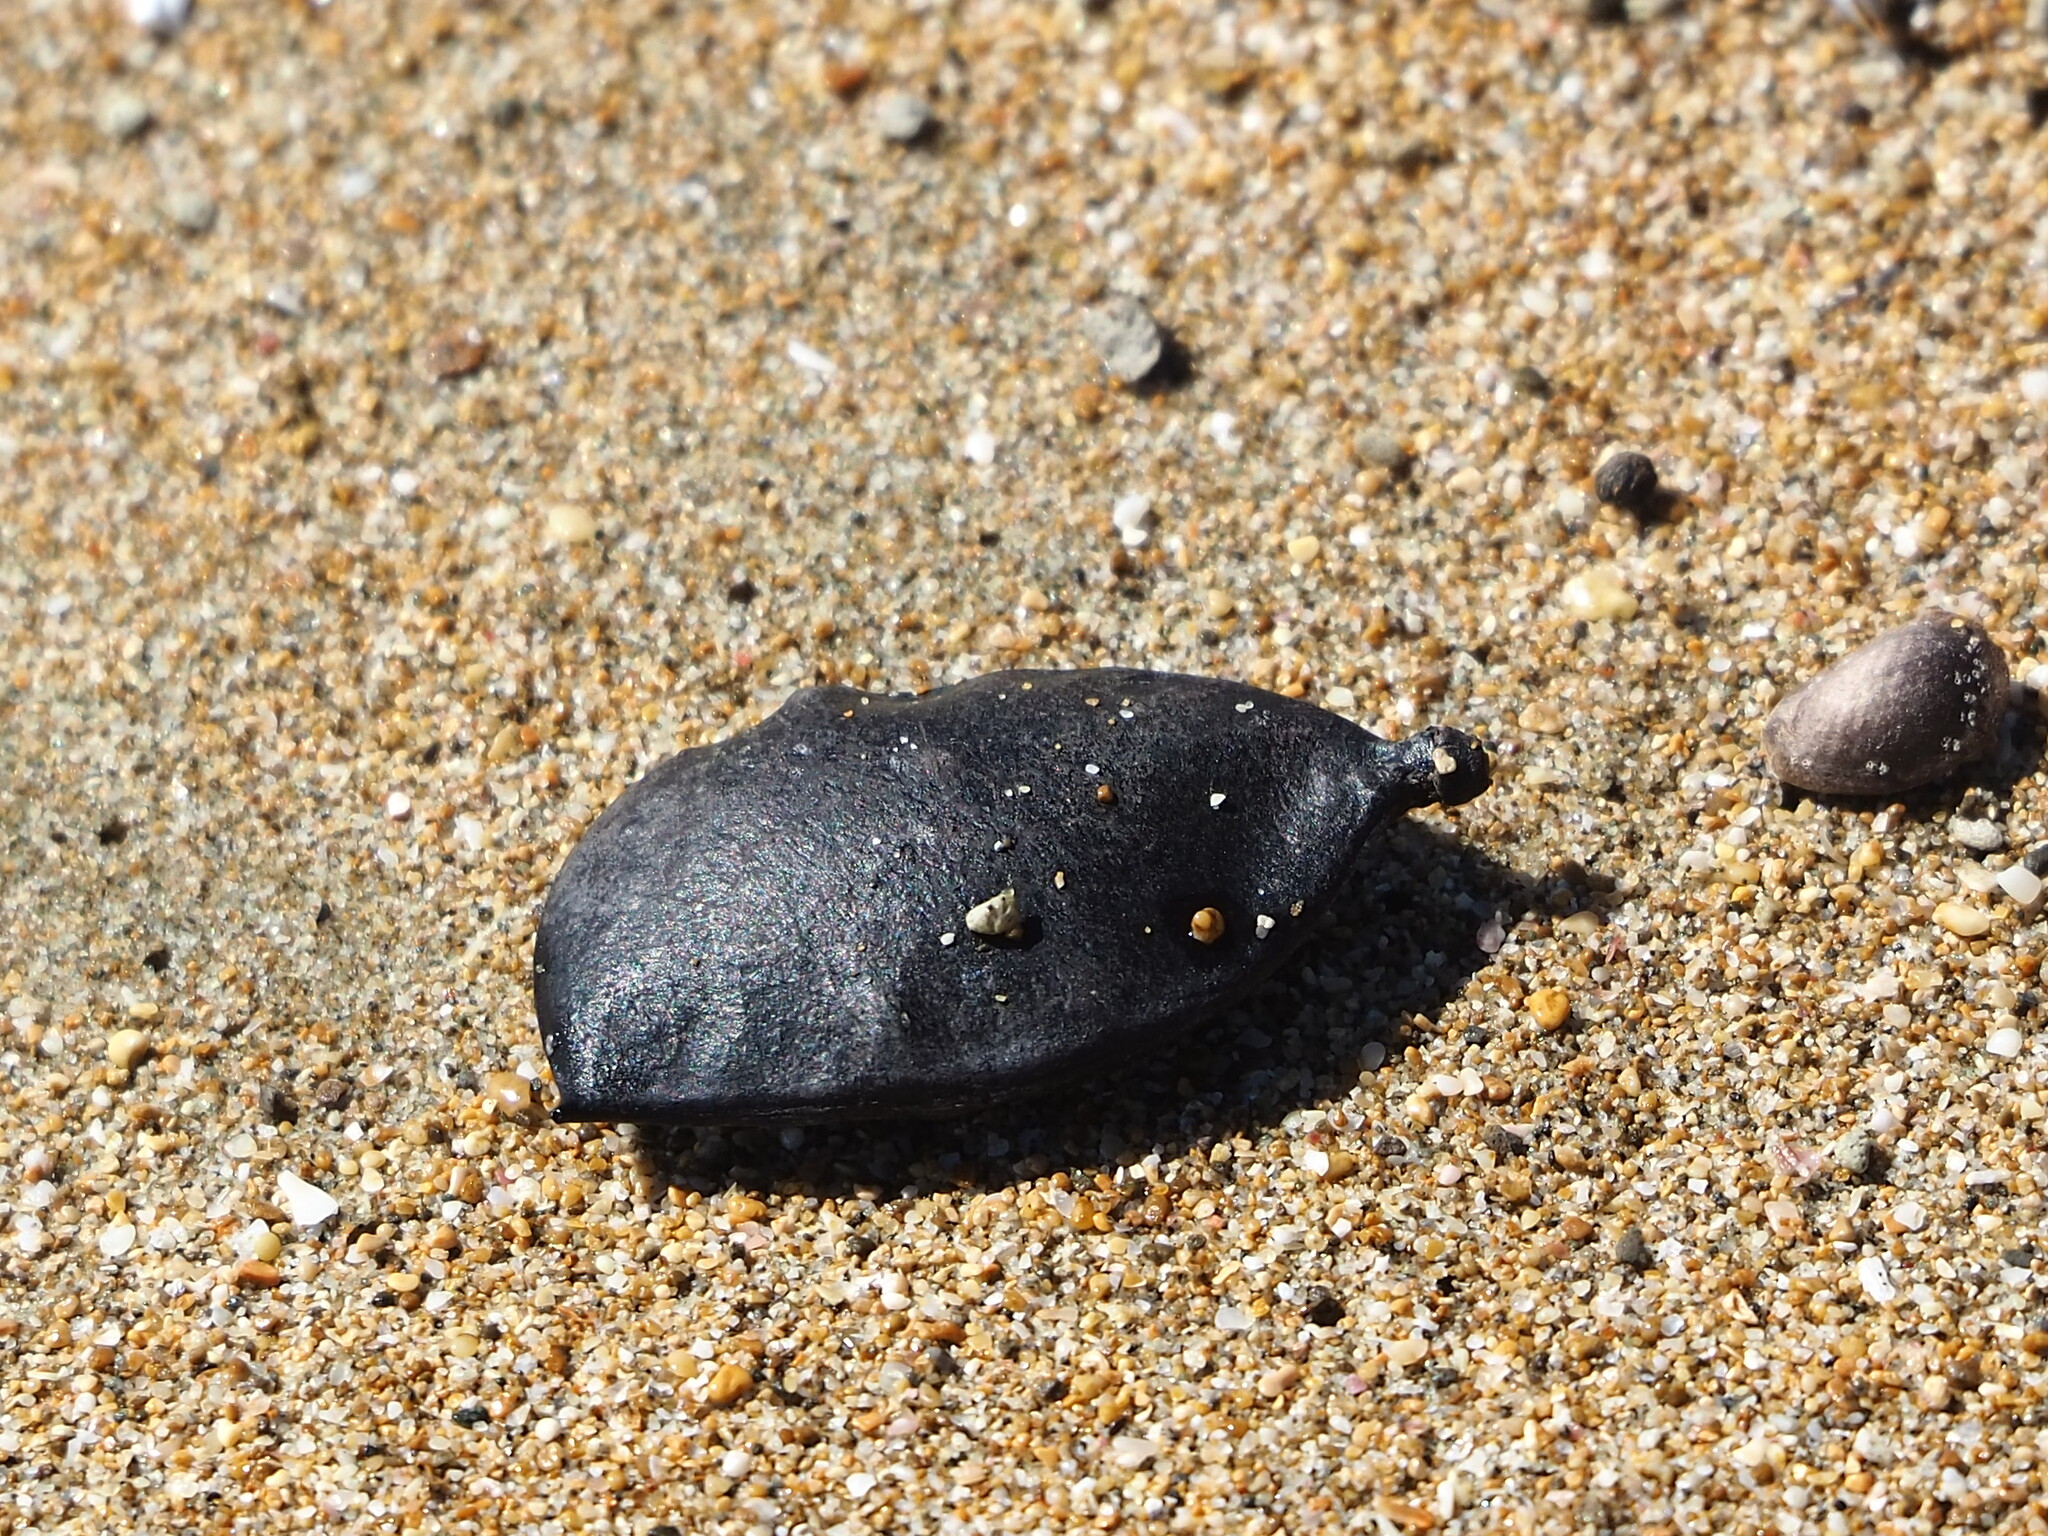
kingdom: Plantae
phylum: Tracheophyta
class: Magnoliopsida
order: Fabales
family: Fabaceae
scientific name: Fabaceae
